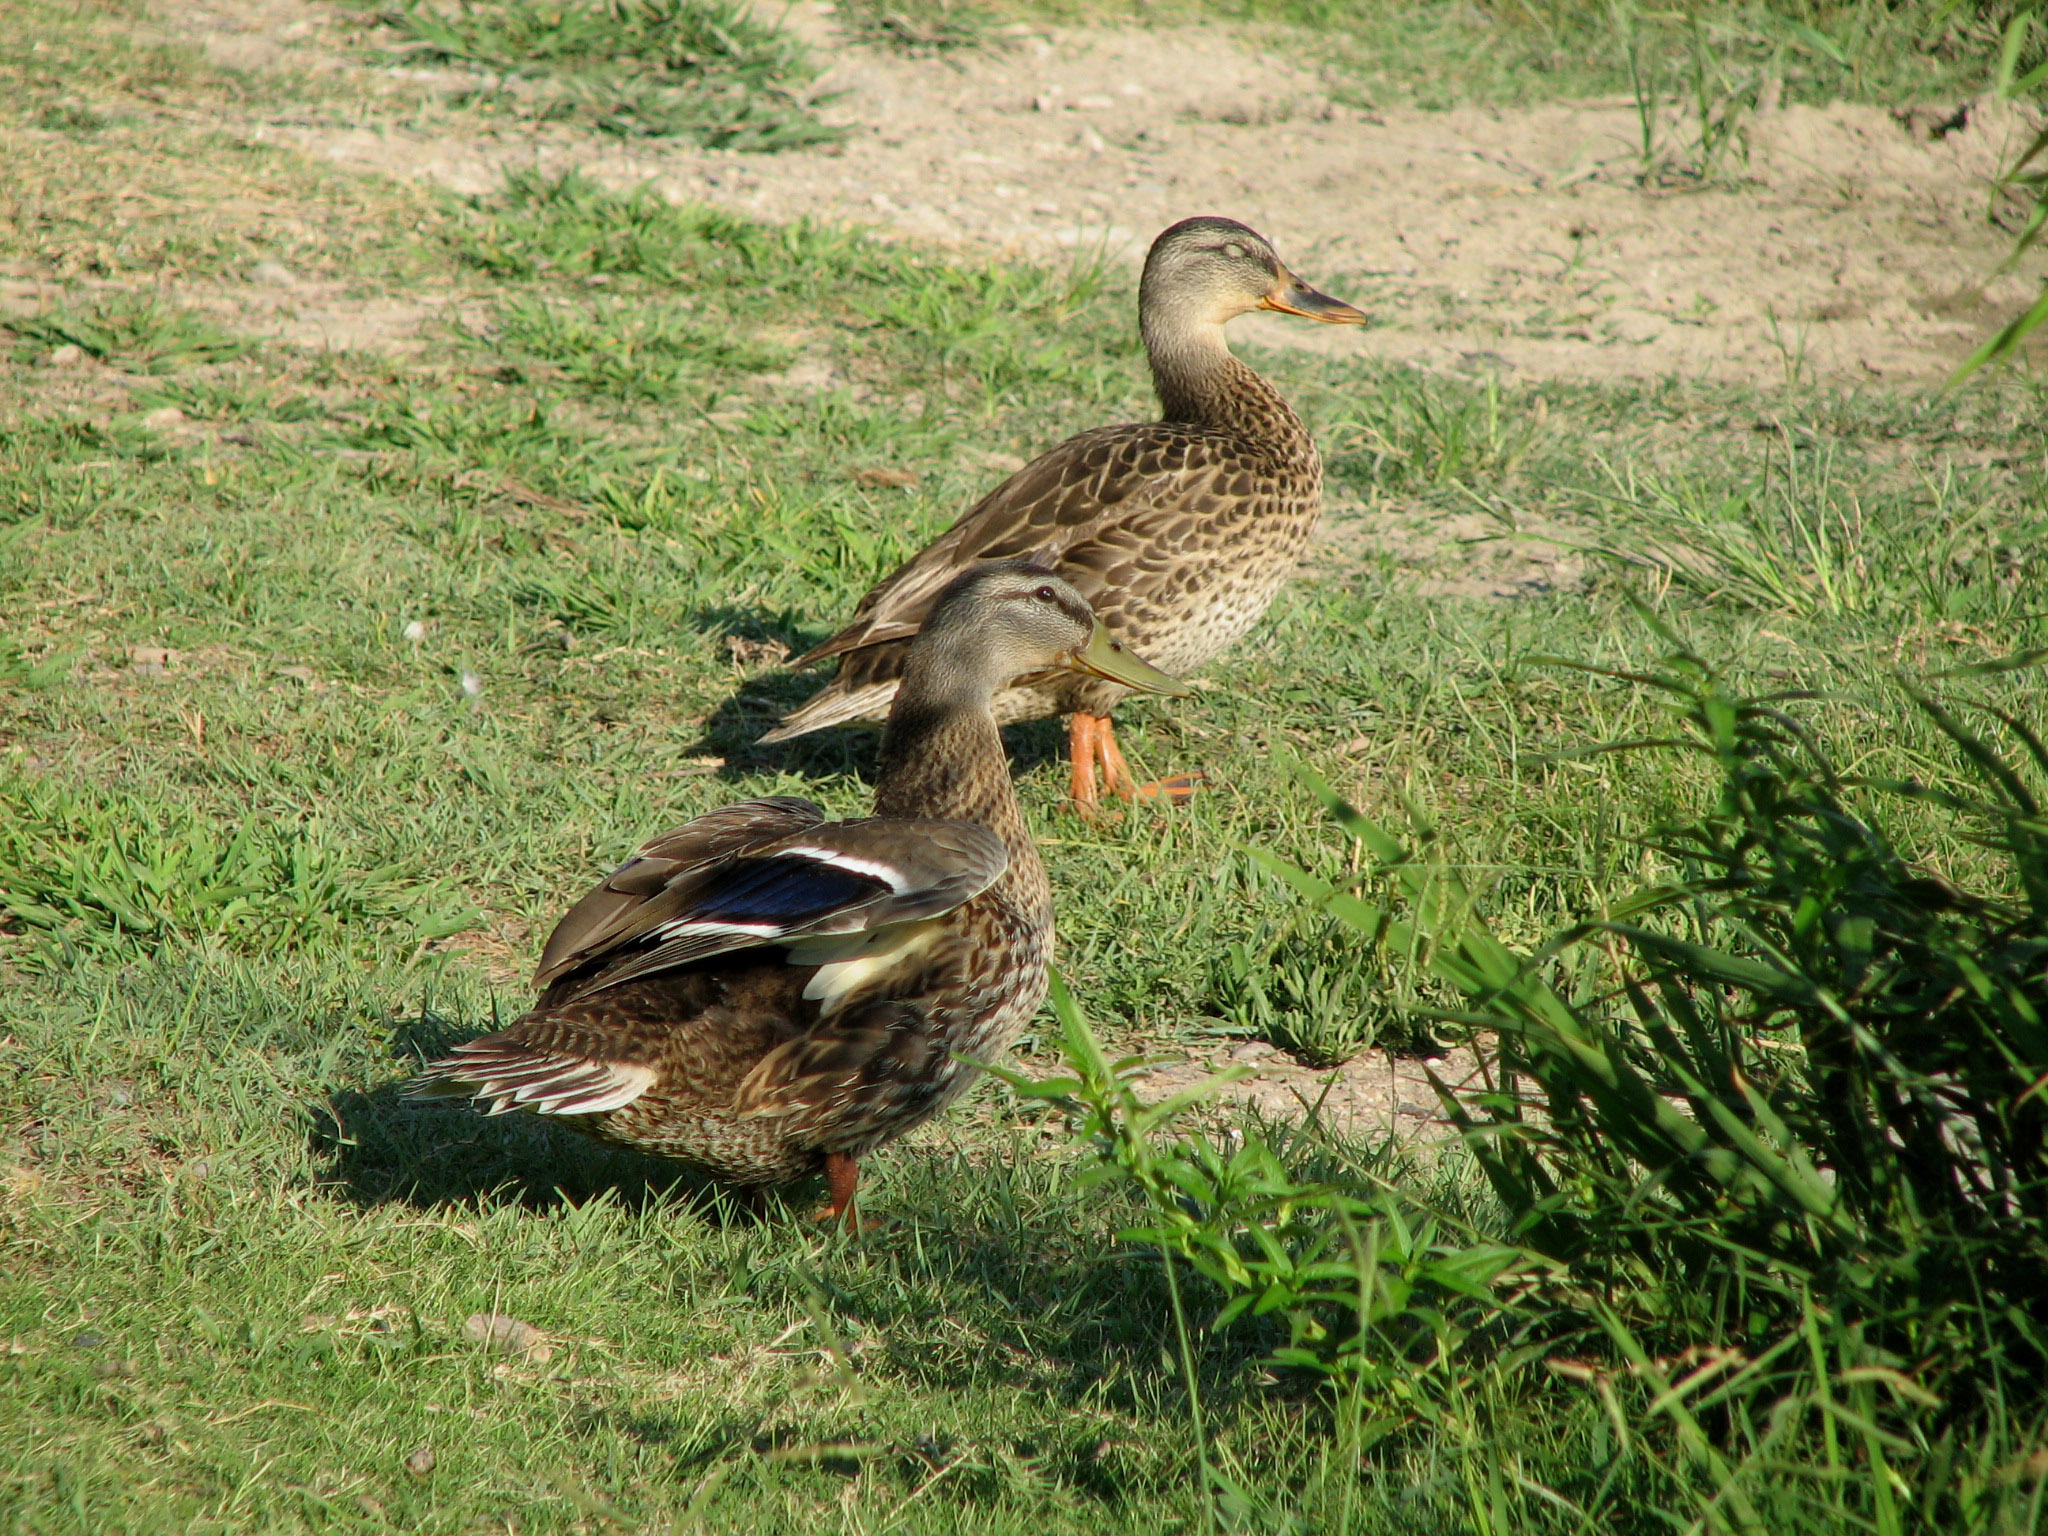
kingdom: Animalia
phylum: Chordata
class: Aves
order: Anseriformes
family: Anatidae
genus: Anas
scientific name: Anas platyrhynchos
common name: Mallard
